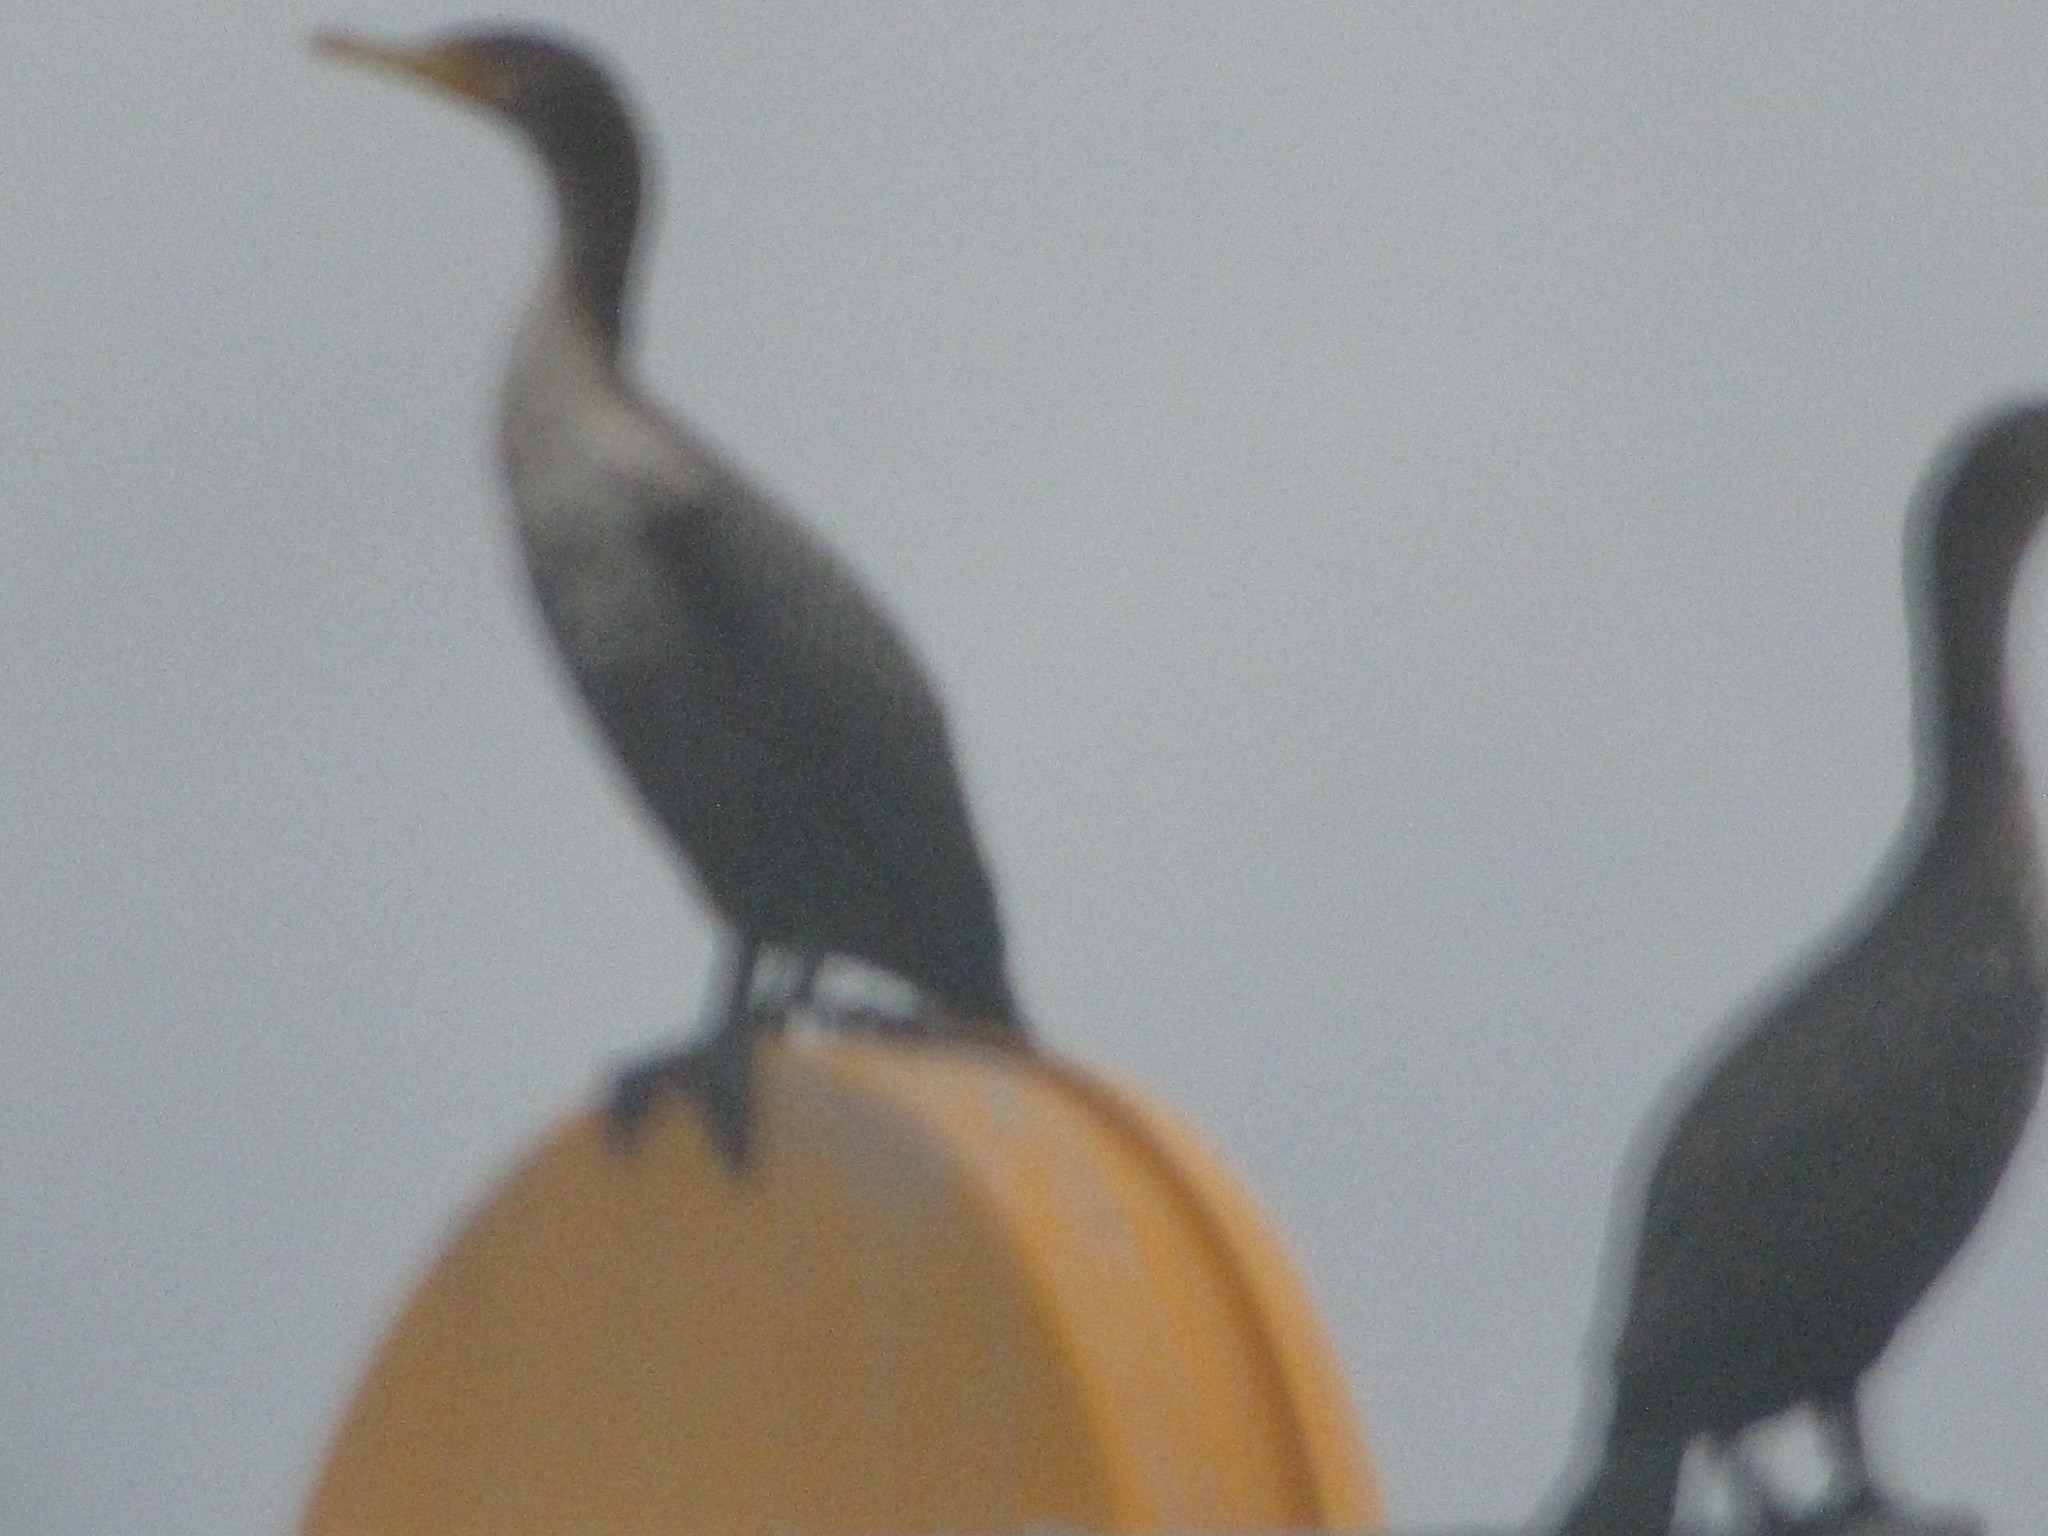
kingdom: Animalia
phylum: Chordata
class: Aves
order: Suliformes
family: Phalacrocoracidae
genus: Phalacrocorax
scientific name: Phalacrocorax auritus
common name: Double-crested cormorant
